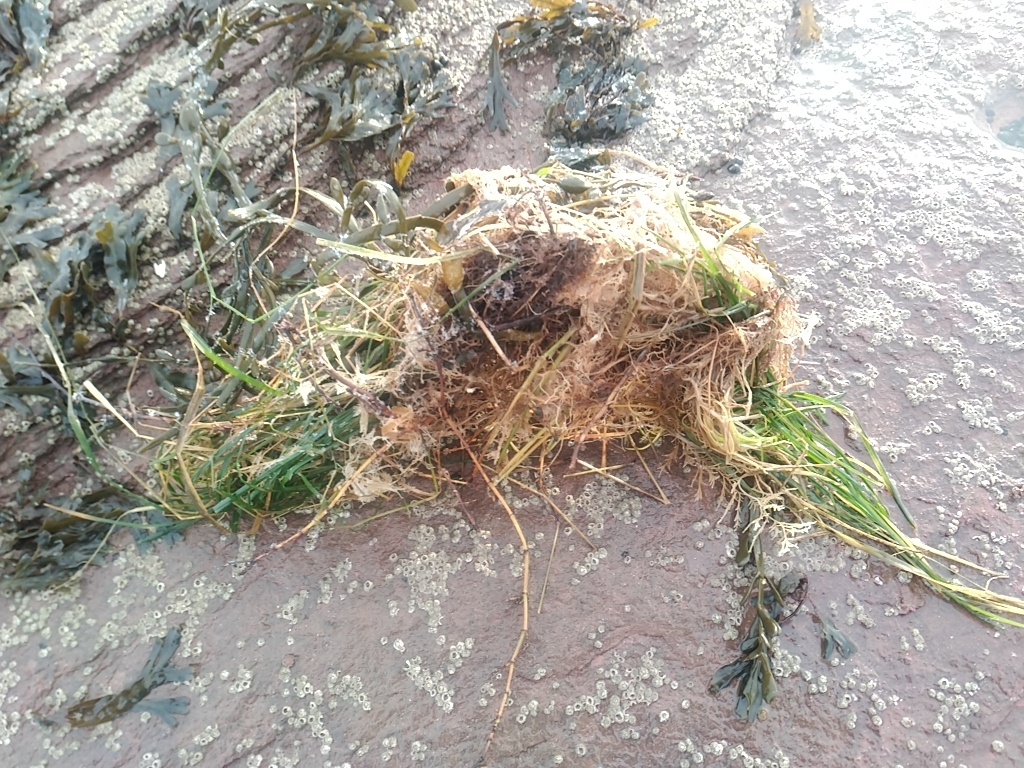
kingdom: Plantae
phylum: Tracheophyta
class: Liliopsida
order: Alismatales
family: Zosteraceae
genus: Zostera
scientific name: Zostera marina
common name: Eelgrass
